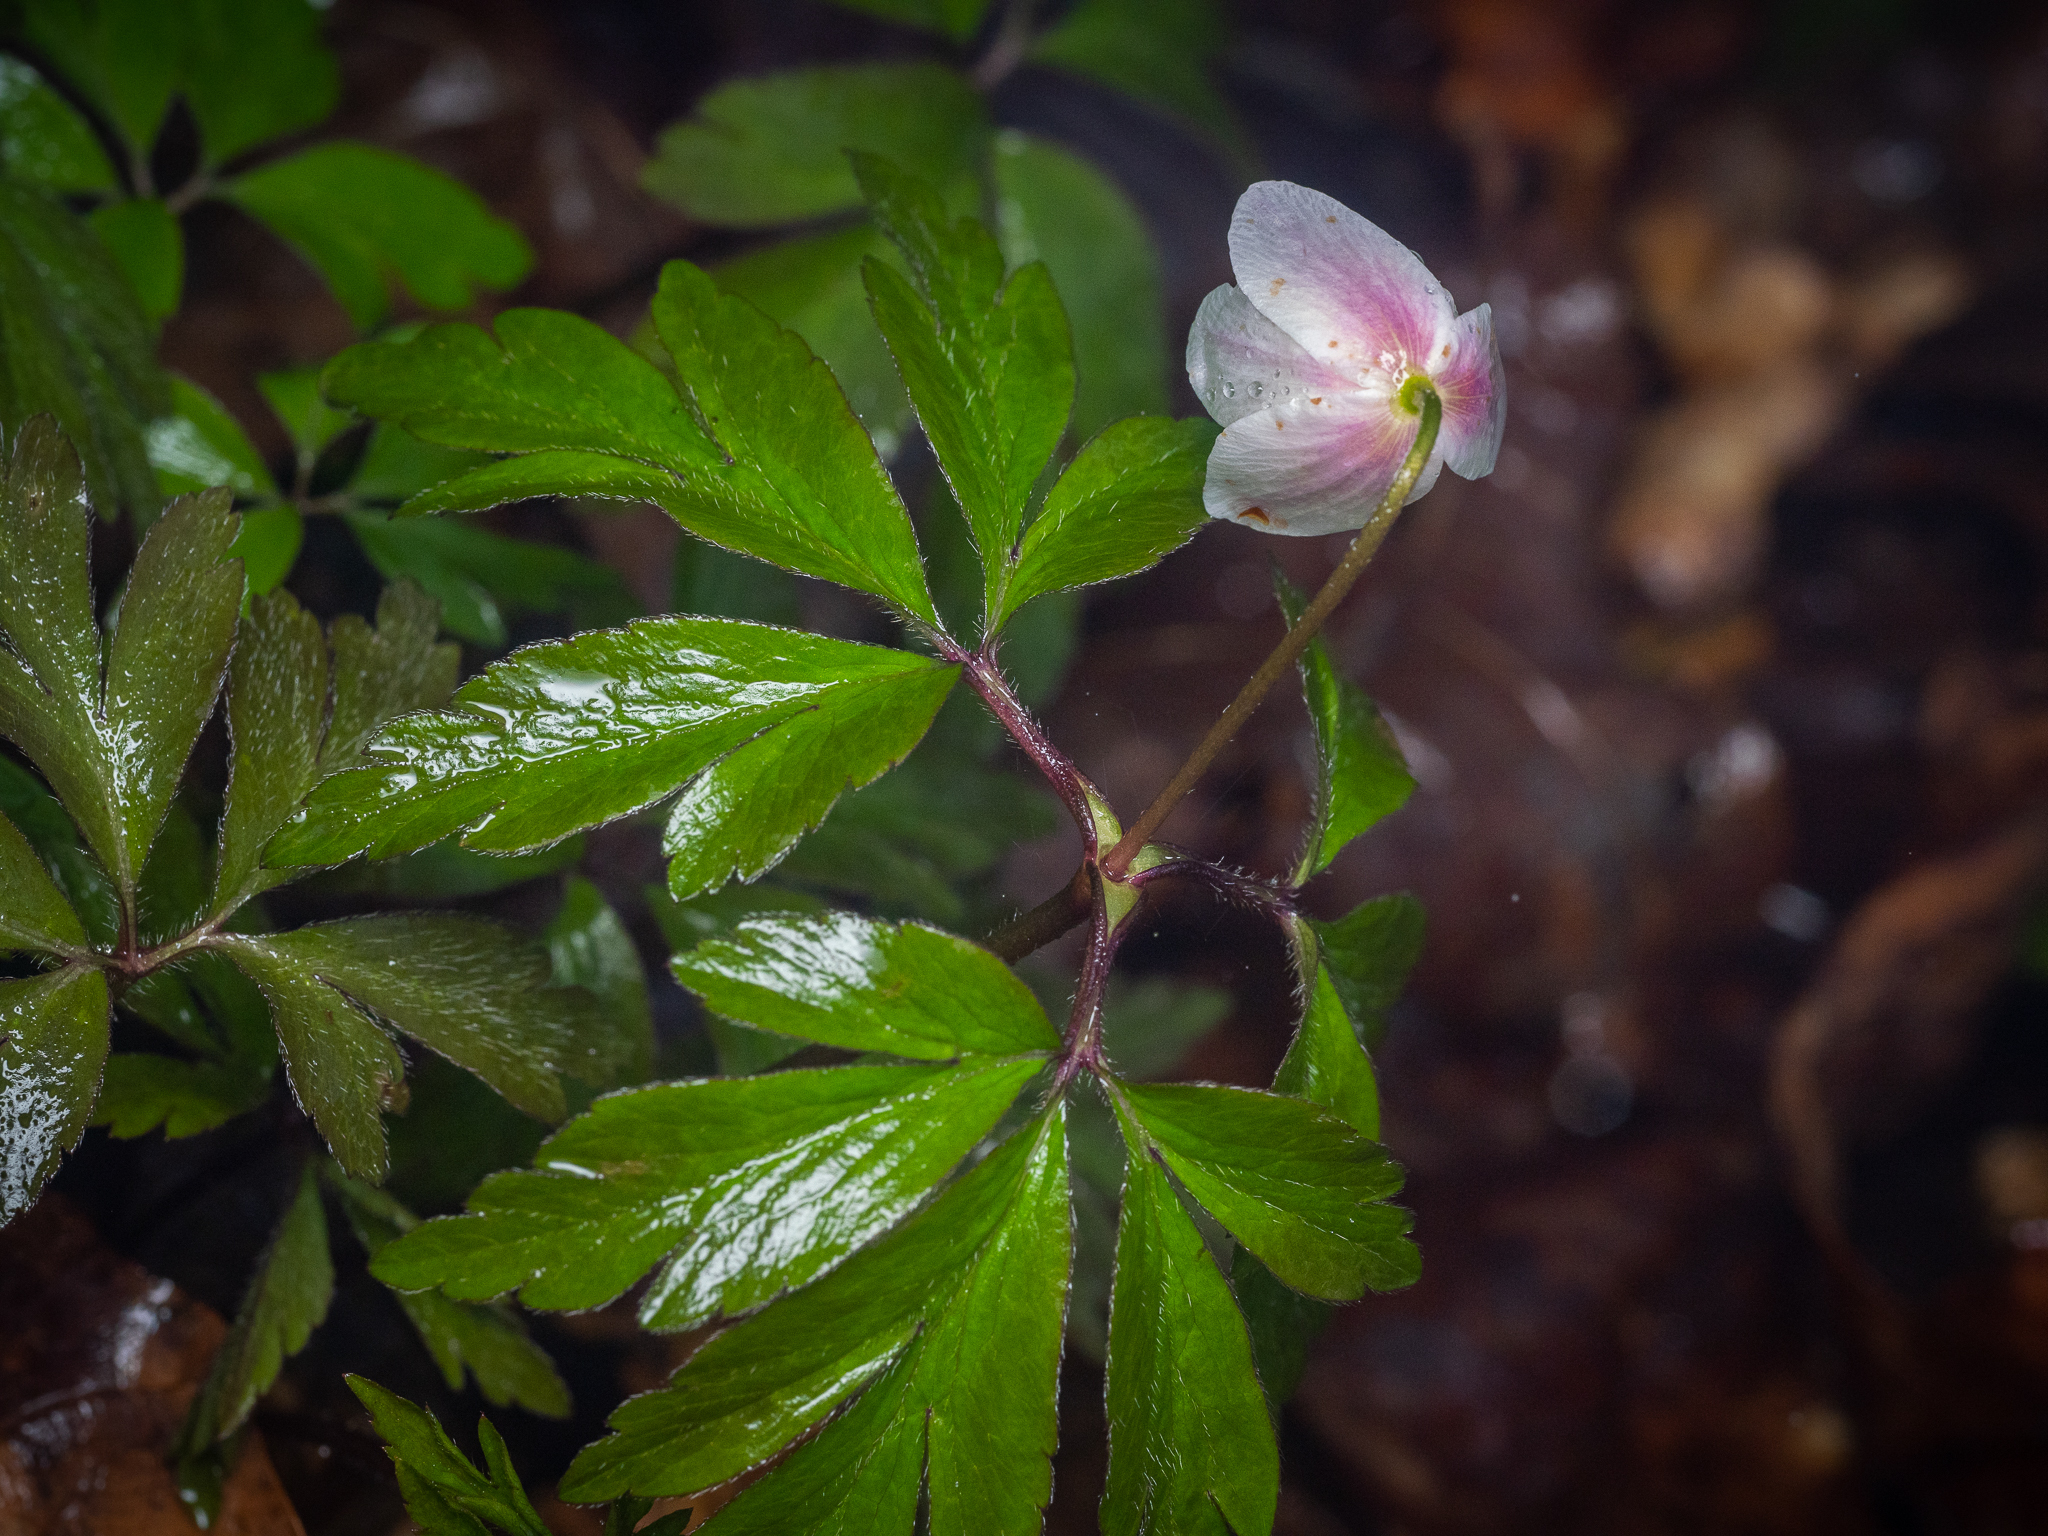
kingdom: Plantae
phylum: Tracheophyta
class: Magnoliopsida
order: Ranunculales
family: Ranunculaceae
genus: Anemone
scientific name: Anemone nemorosa
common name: Wood anemone
